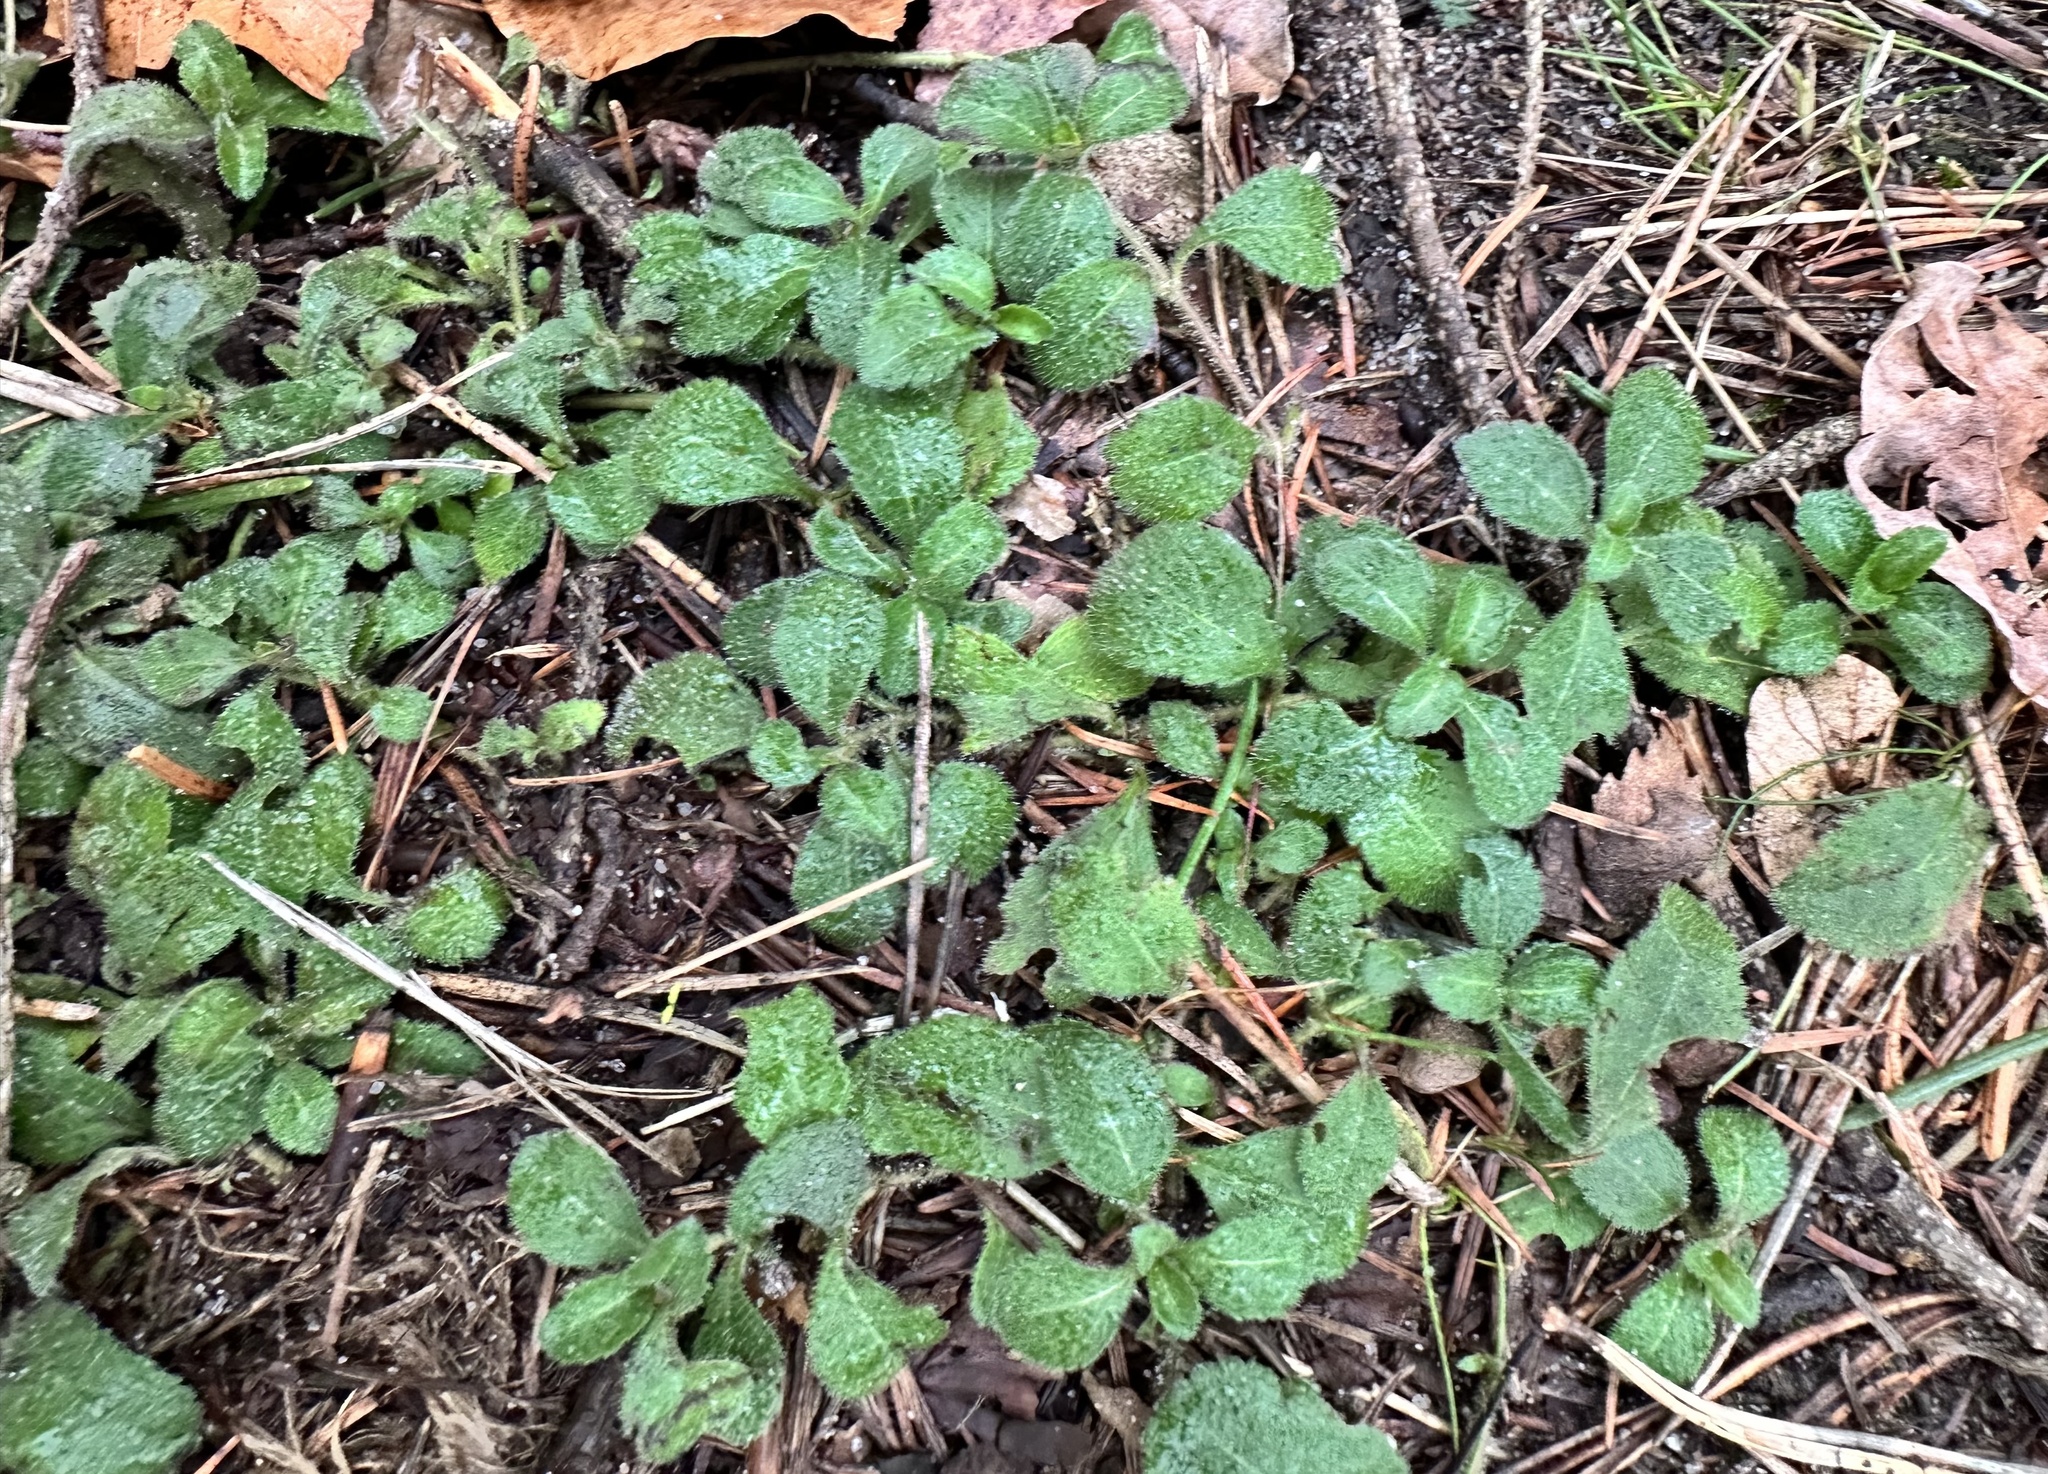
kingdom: Plantae
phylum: Tracheophyta
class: Magnoliopsida
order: Lamiales
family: Plantaginaceae
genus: Veronica
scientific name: Veronica officinalis
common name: Common speedwell
